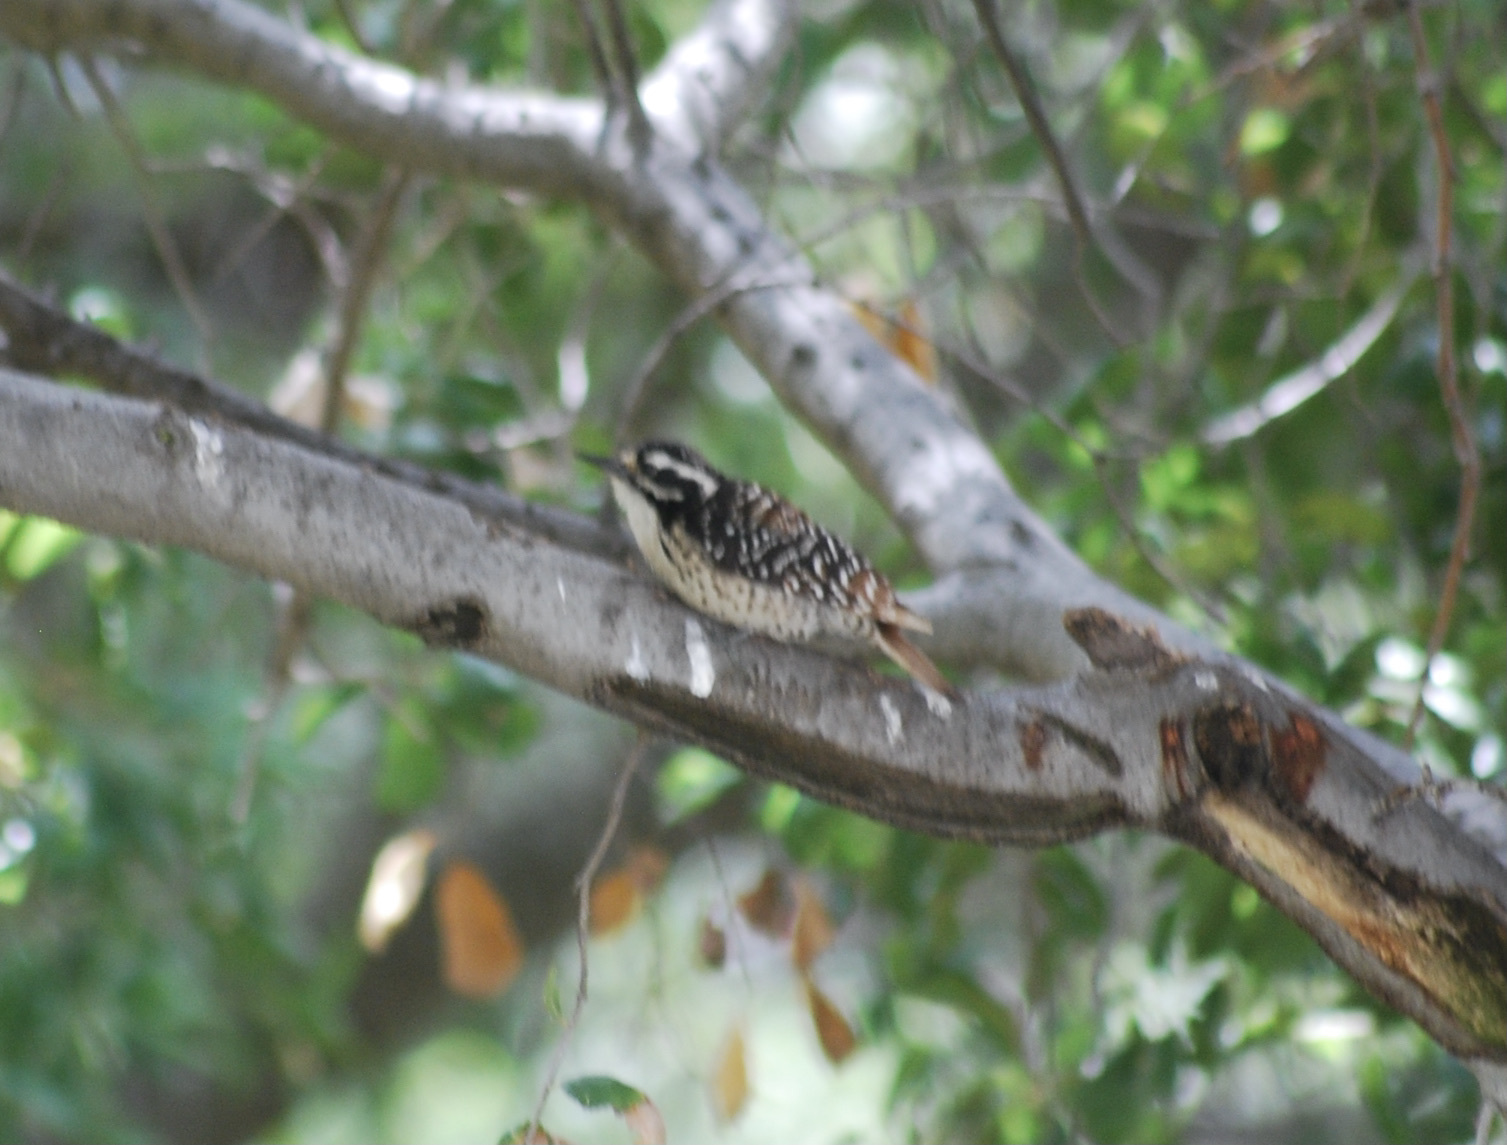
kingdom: Animalia
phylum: Chordata
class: Aves
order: Piciformes
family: Picidae
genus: Dryobates
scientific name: Dryobates nuttallii
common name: Nuttall's woodpecker
